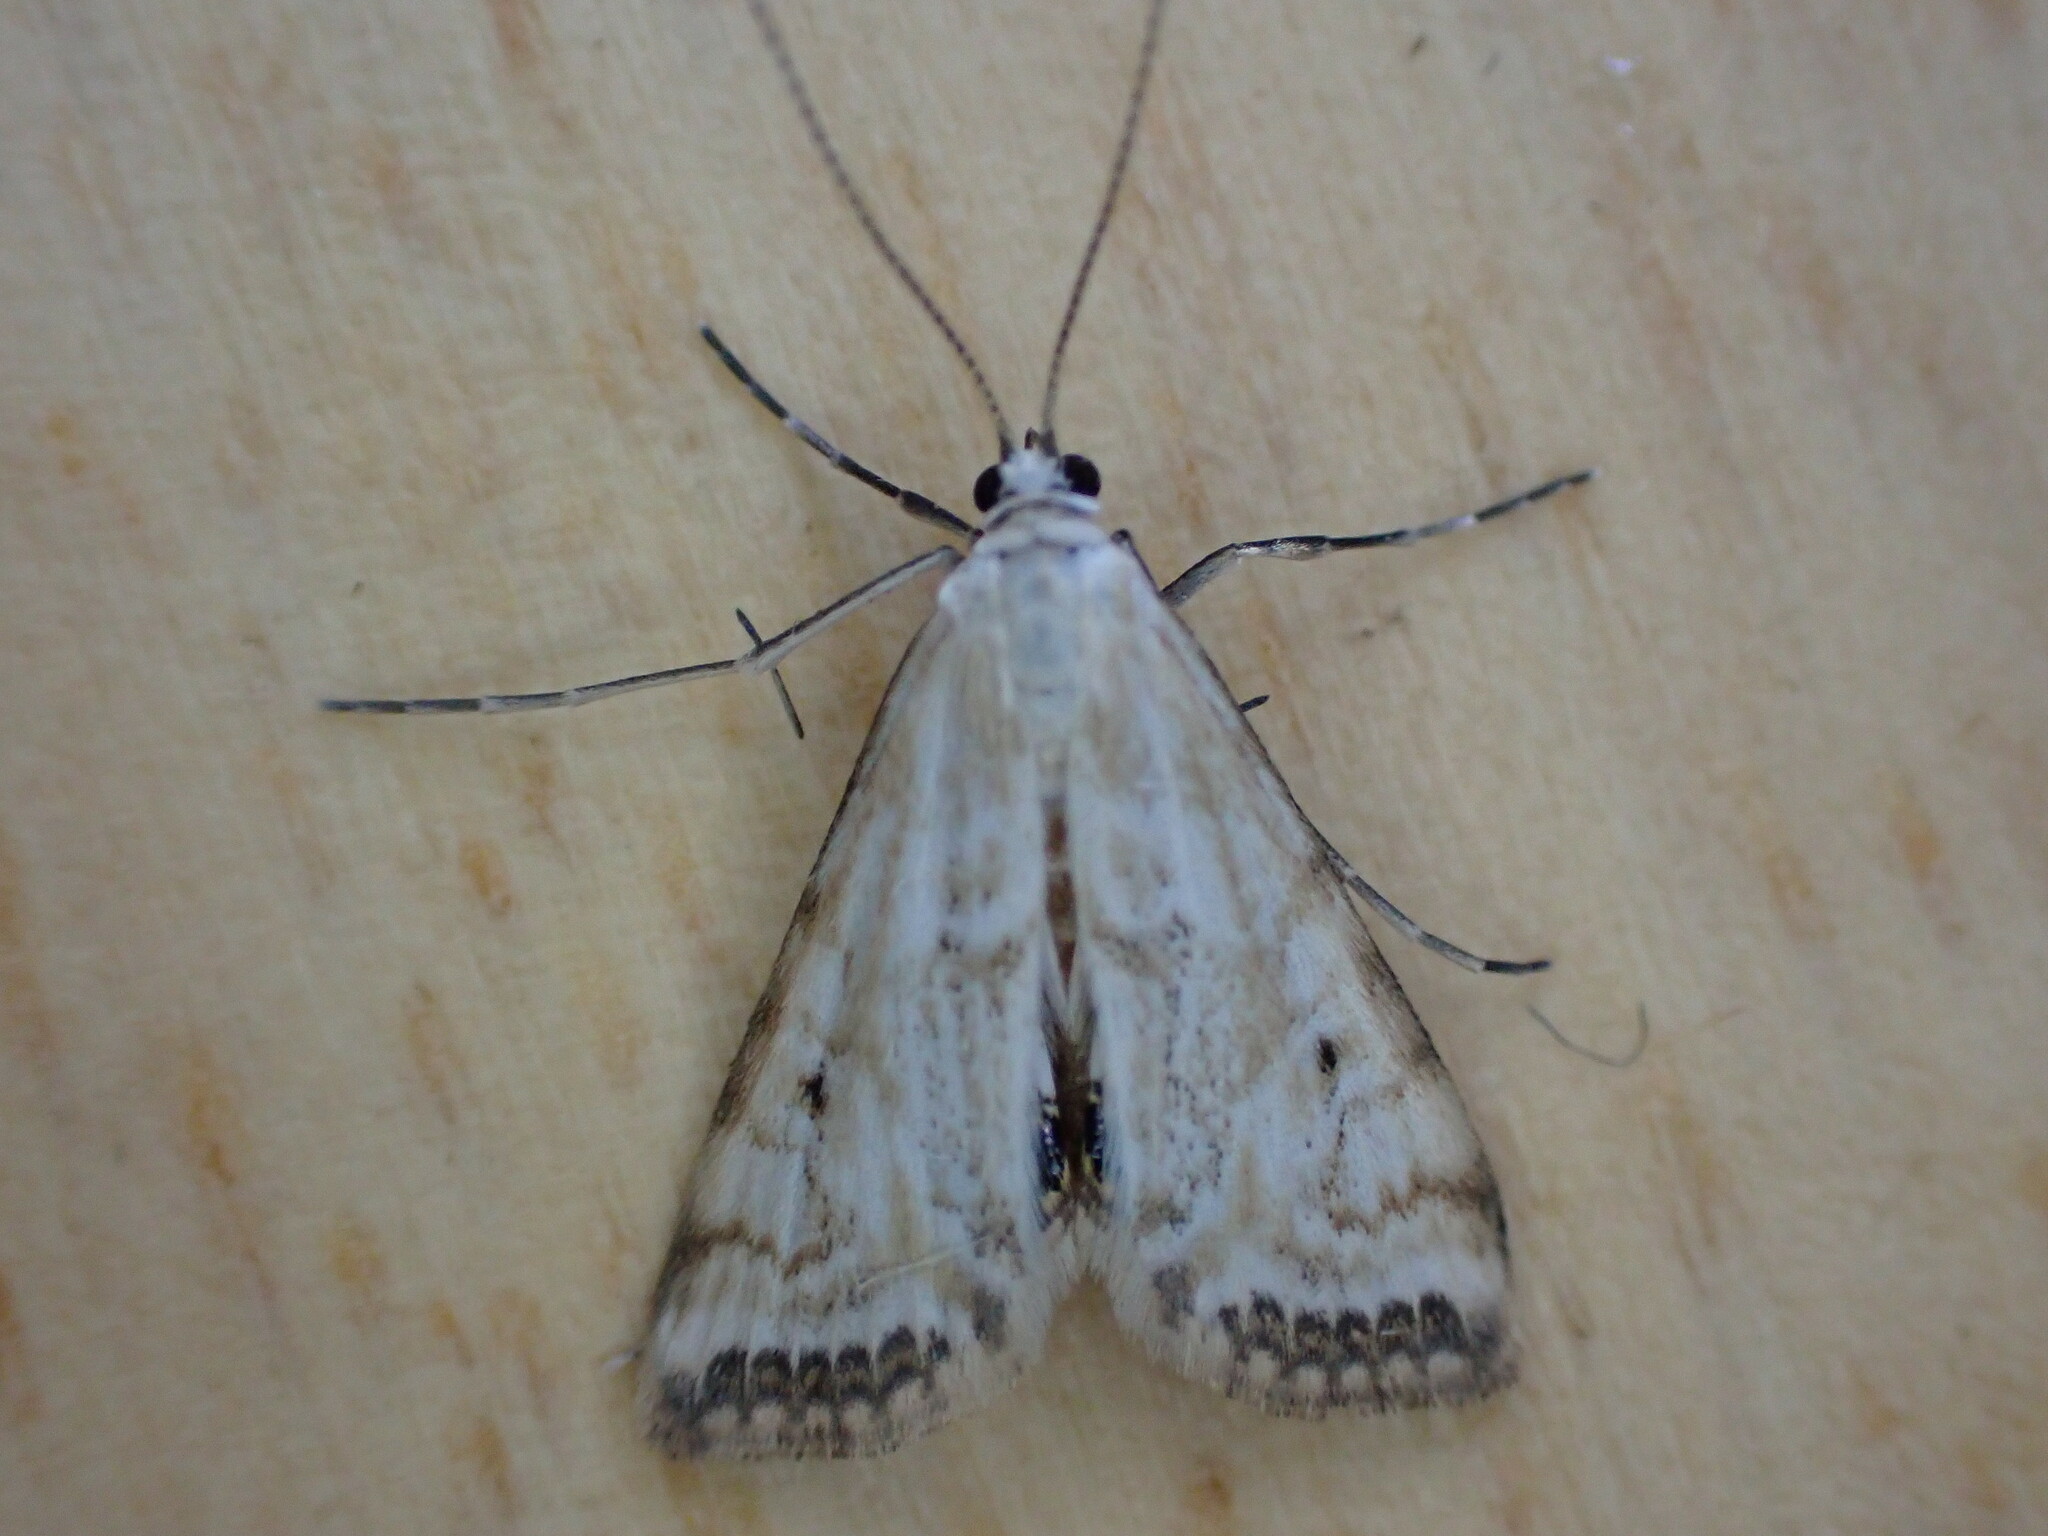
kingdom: Animalia
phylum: Arthropoda
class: Insecta
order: Lepidoptera
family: Crambidae
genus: Cataclysta
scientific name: Cataclysta lemnata
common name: Small china-mark
